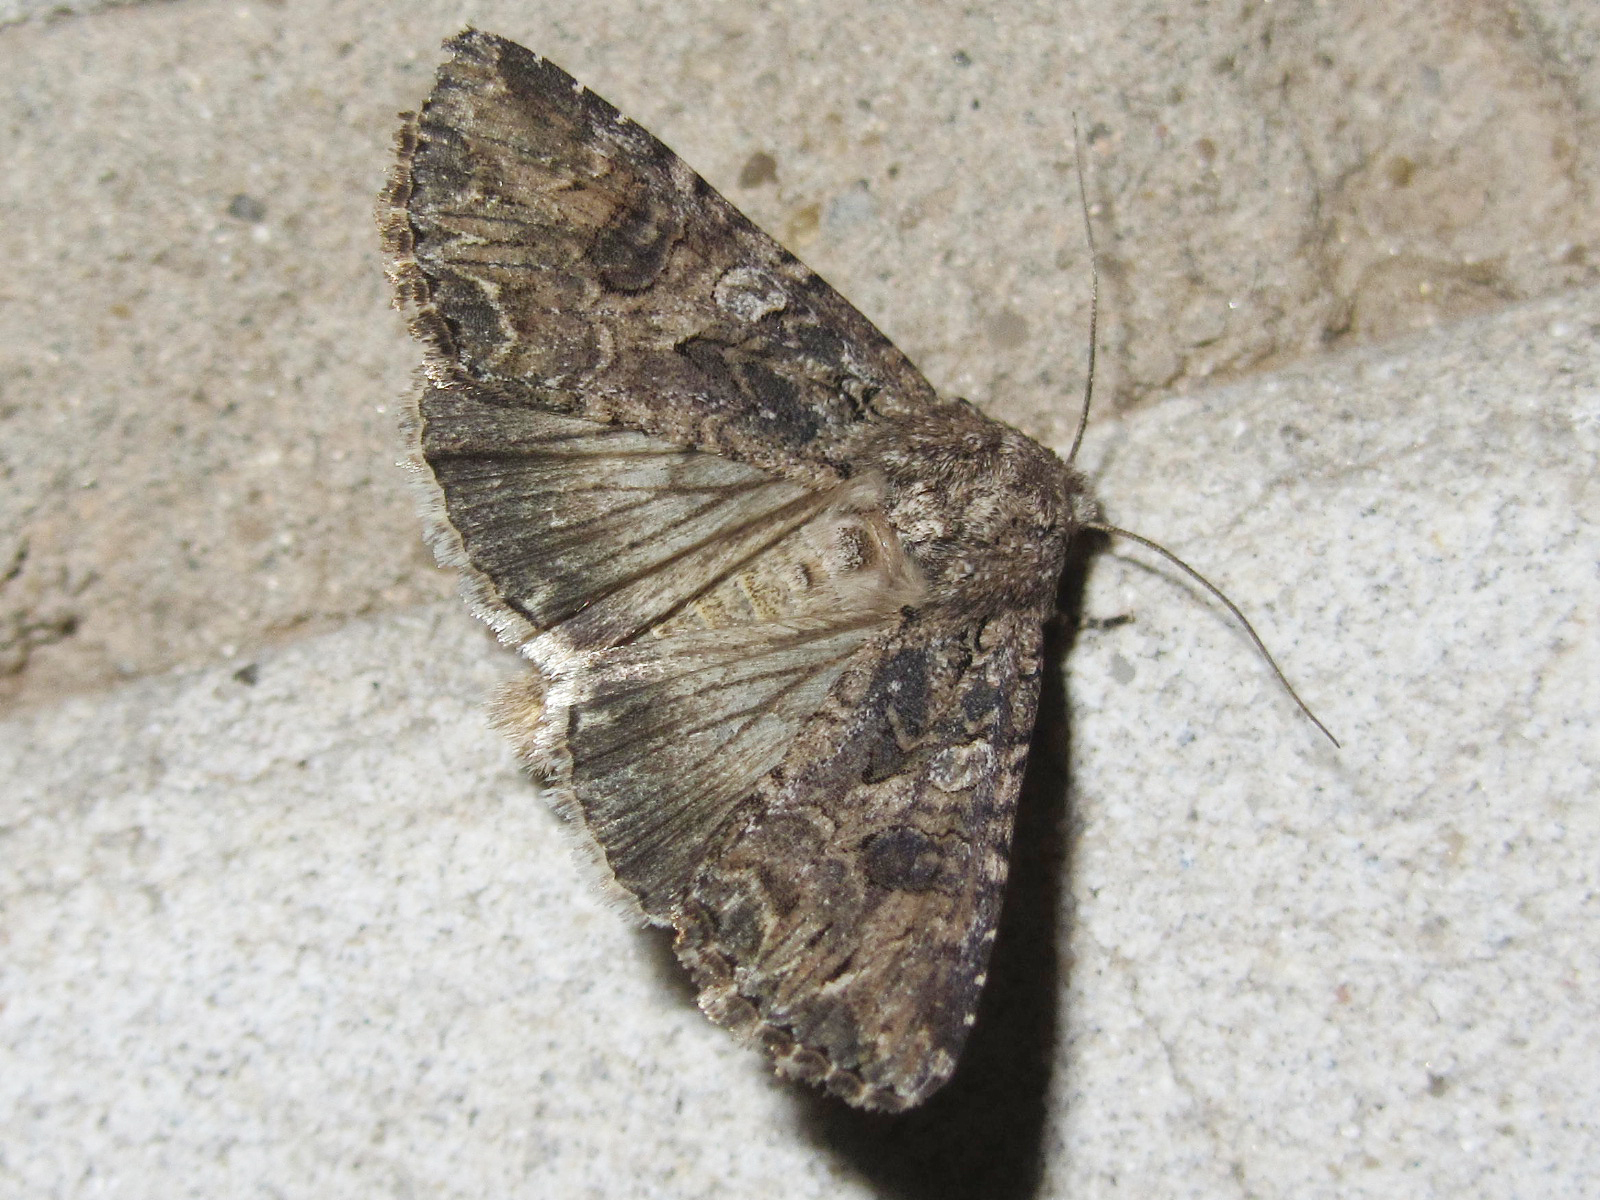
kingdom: Animalia
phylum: Arthropoda
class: Insecta
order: Lepidoptera
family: Noctuidae
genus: Anarta
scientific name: Anarta trifolii
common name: Clover cutworm moth
